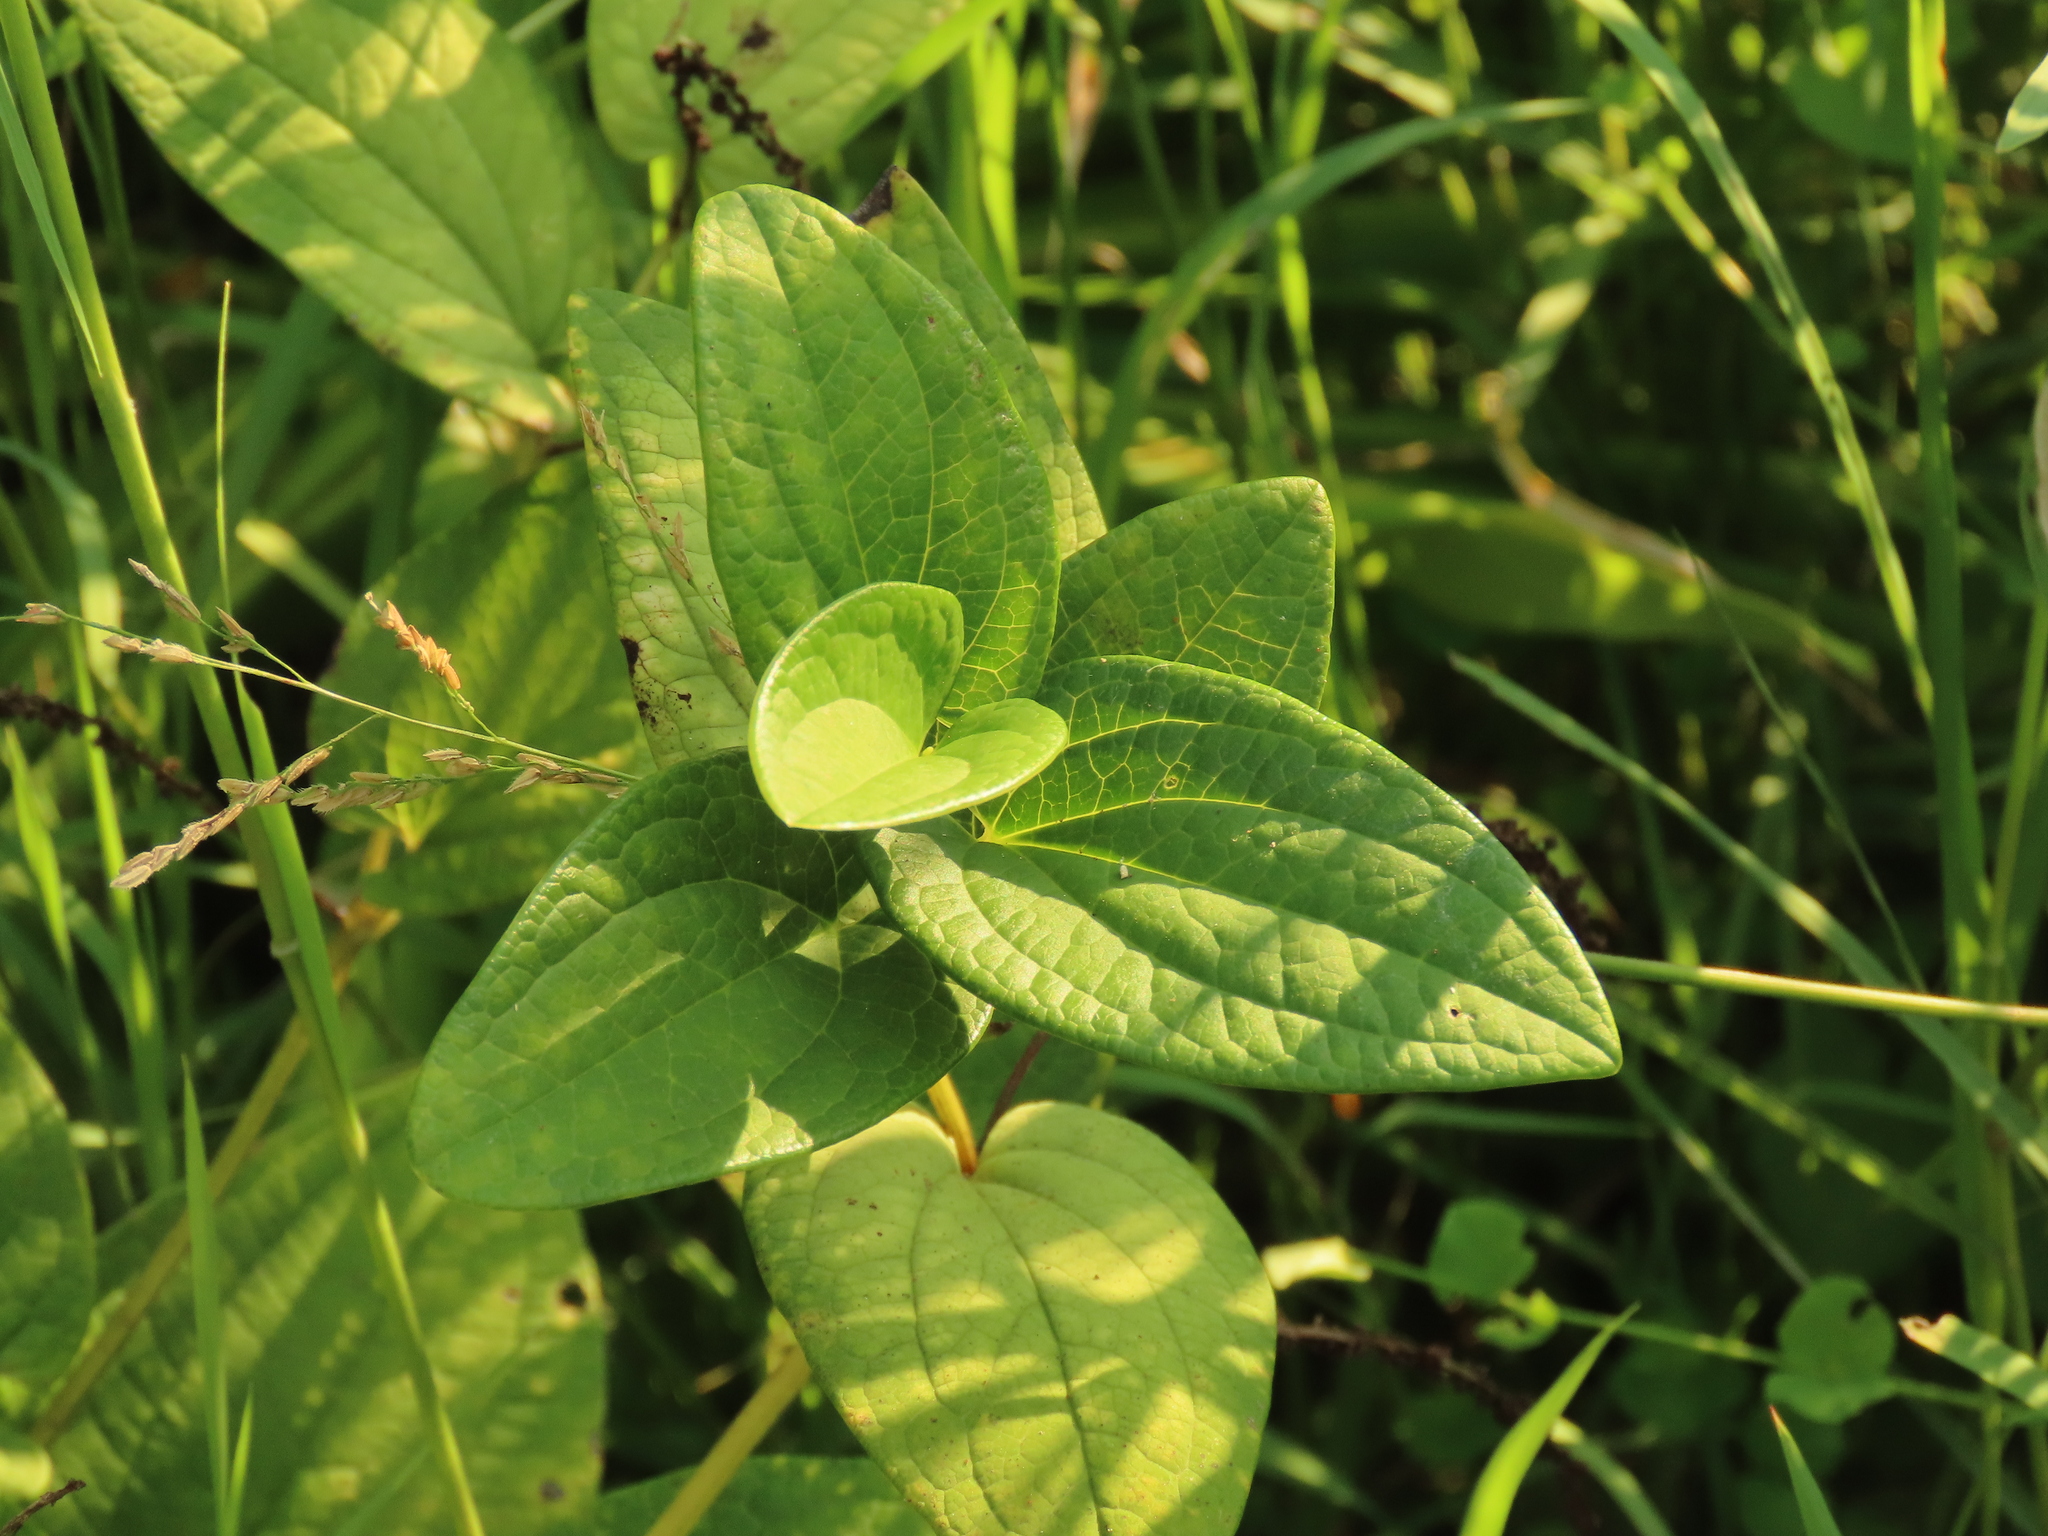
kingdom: Plantae
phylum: Tracheophyta
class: Magnoliopsida
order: Piperales
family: Saururaceae
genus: Saururus
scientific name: Saururus chinensis
